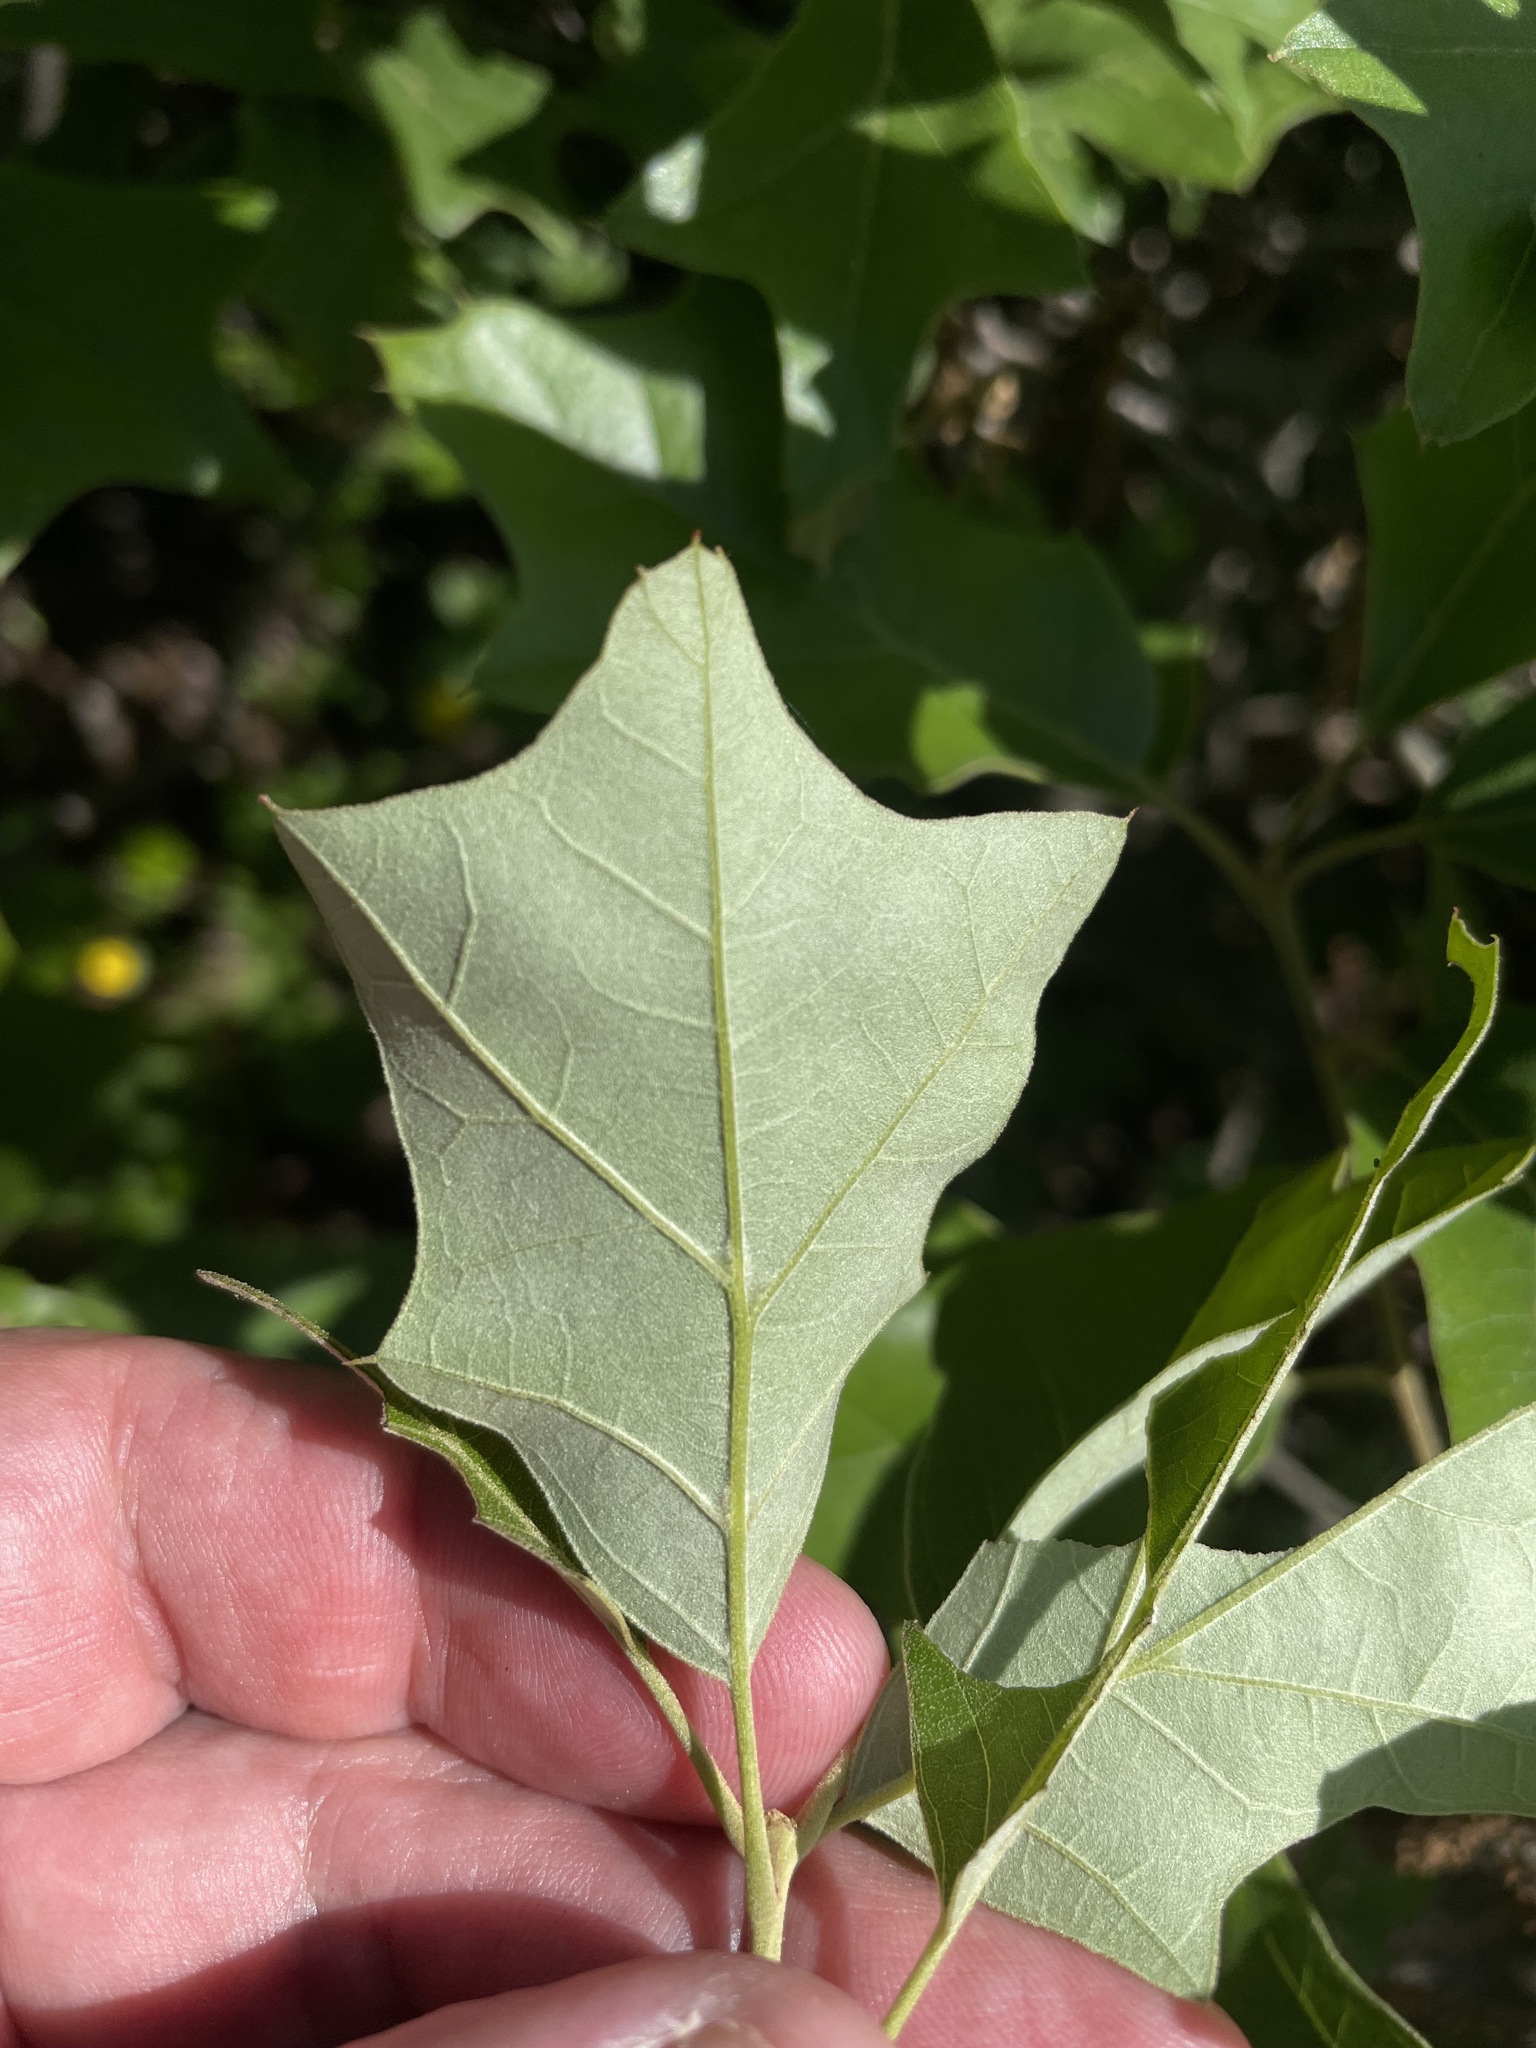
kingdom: Plantae
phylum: Tracheophyta
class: Magnoliopsida
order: Fagales
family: Fagaceae
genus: Quercus
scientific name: Quercus ilicifolia
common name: Bear oak
